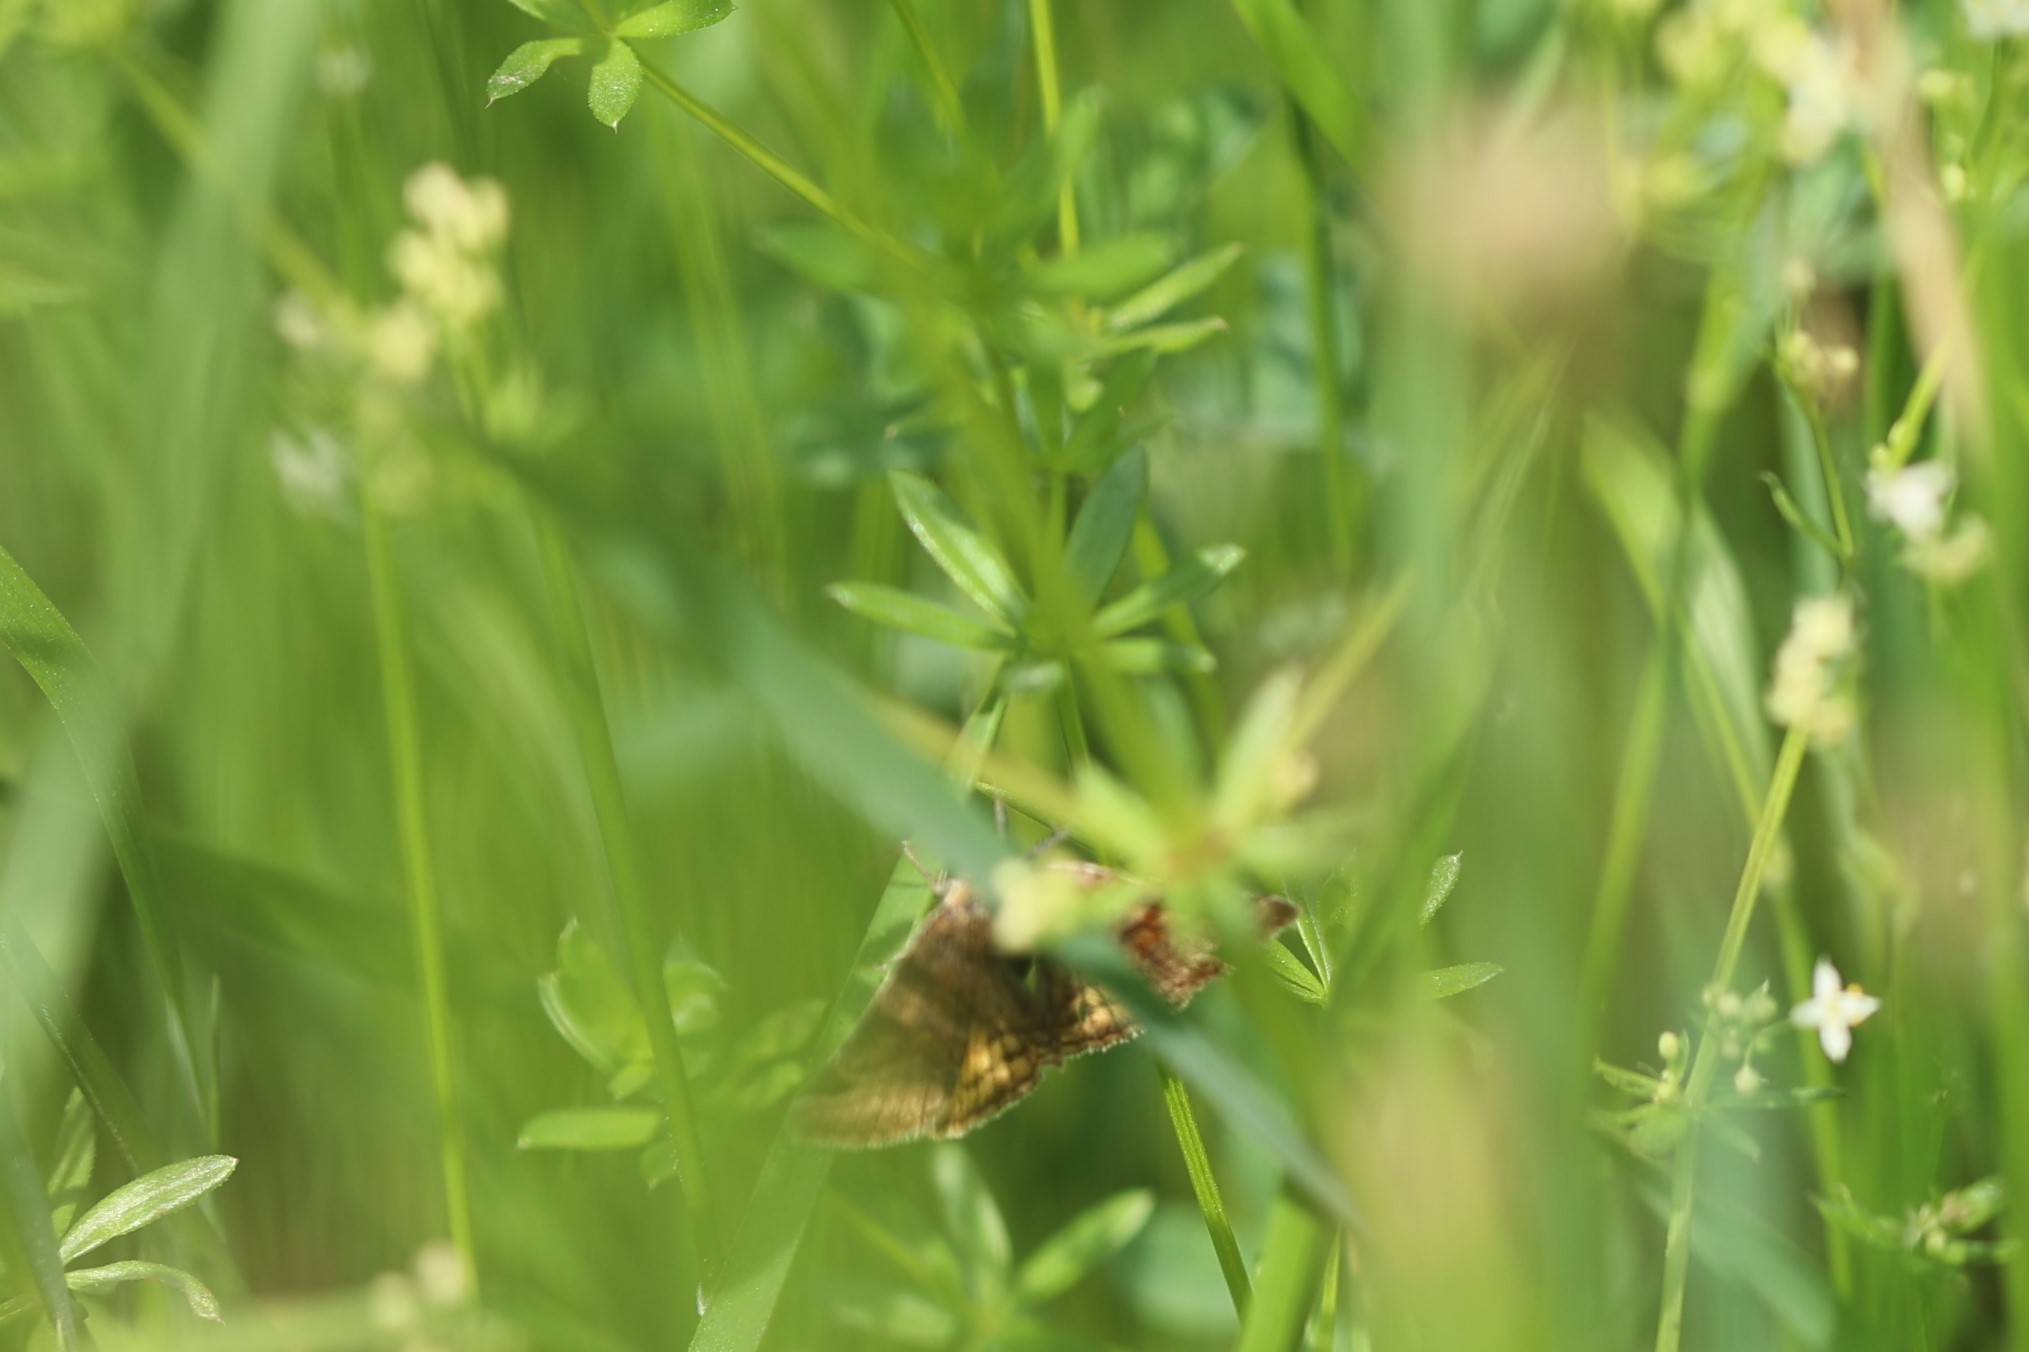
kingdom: Animalia
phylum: Arthropoda
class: Insecta
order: Lepidoptera
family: Erebidae
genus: Euclidia
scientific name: Euclidia glyphica
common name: Burnet companion
